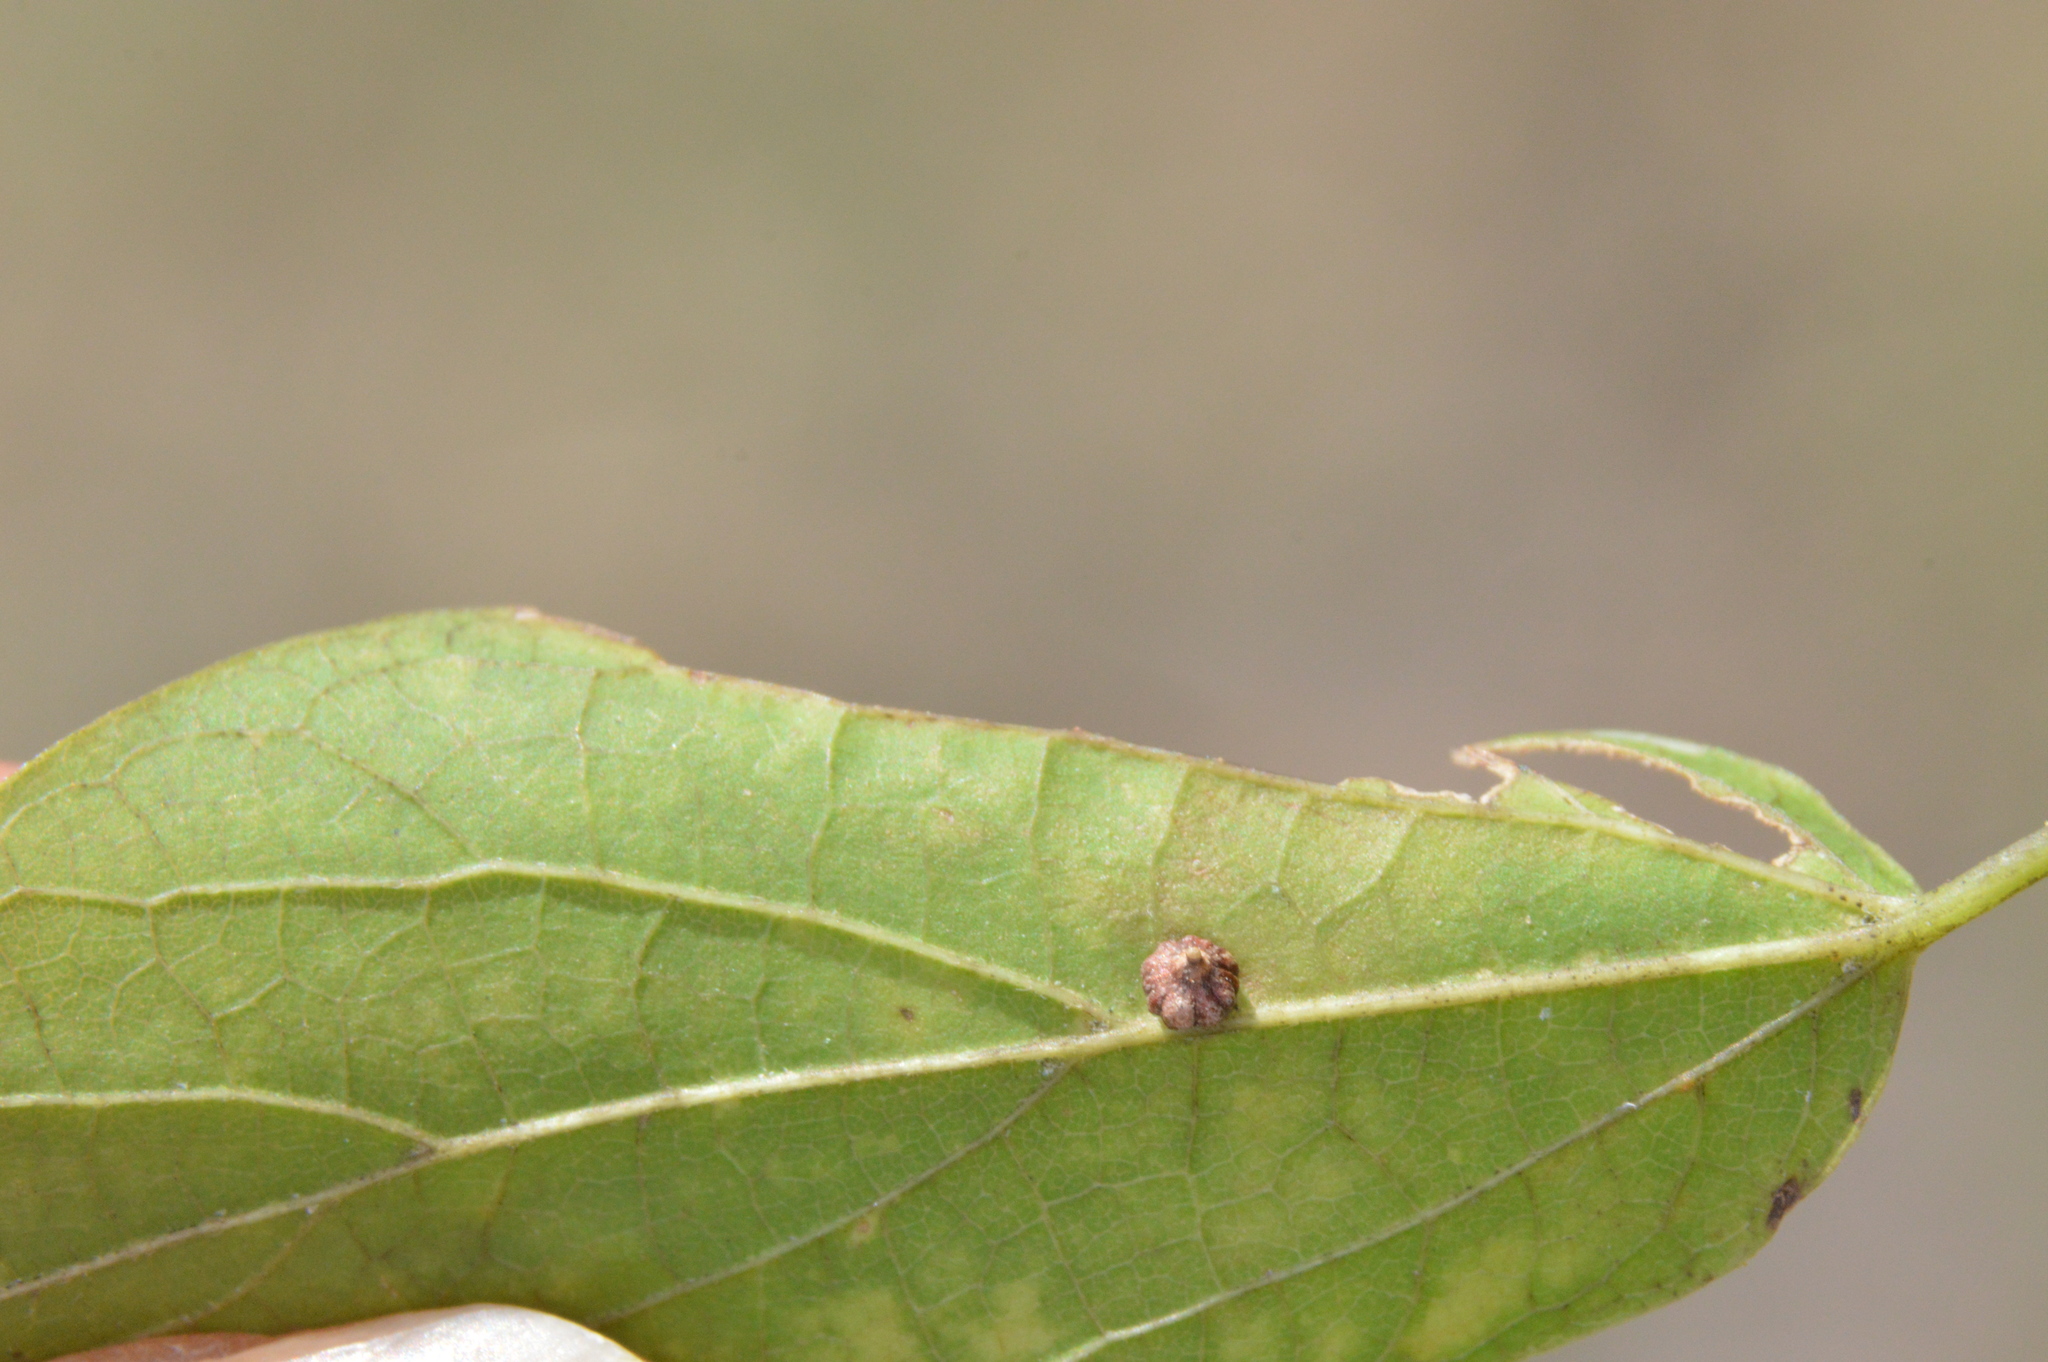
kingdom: Animalia
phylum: Arthropoda
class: Insecta
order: Diptera
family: Cecidomyiidae
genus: Celticecis
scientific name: Celticecis capsularis
